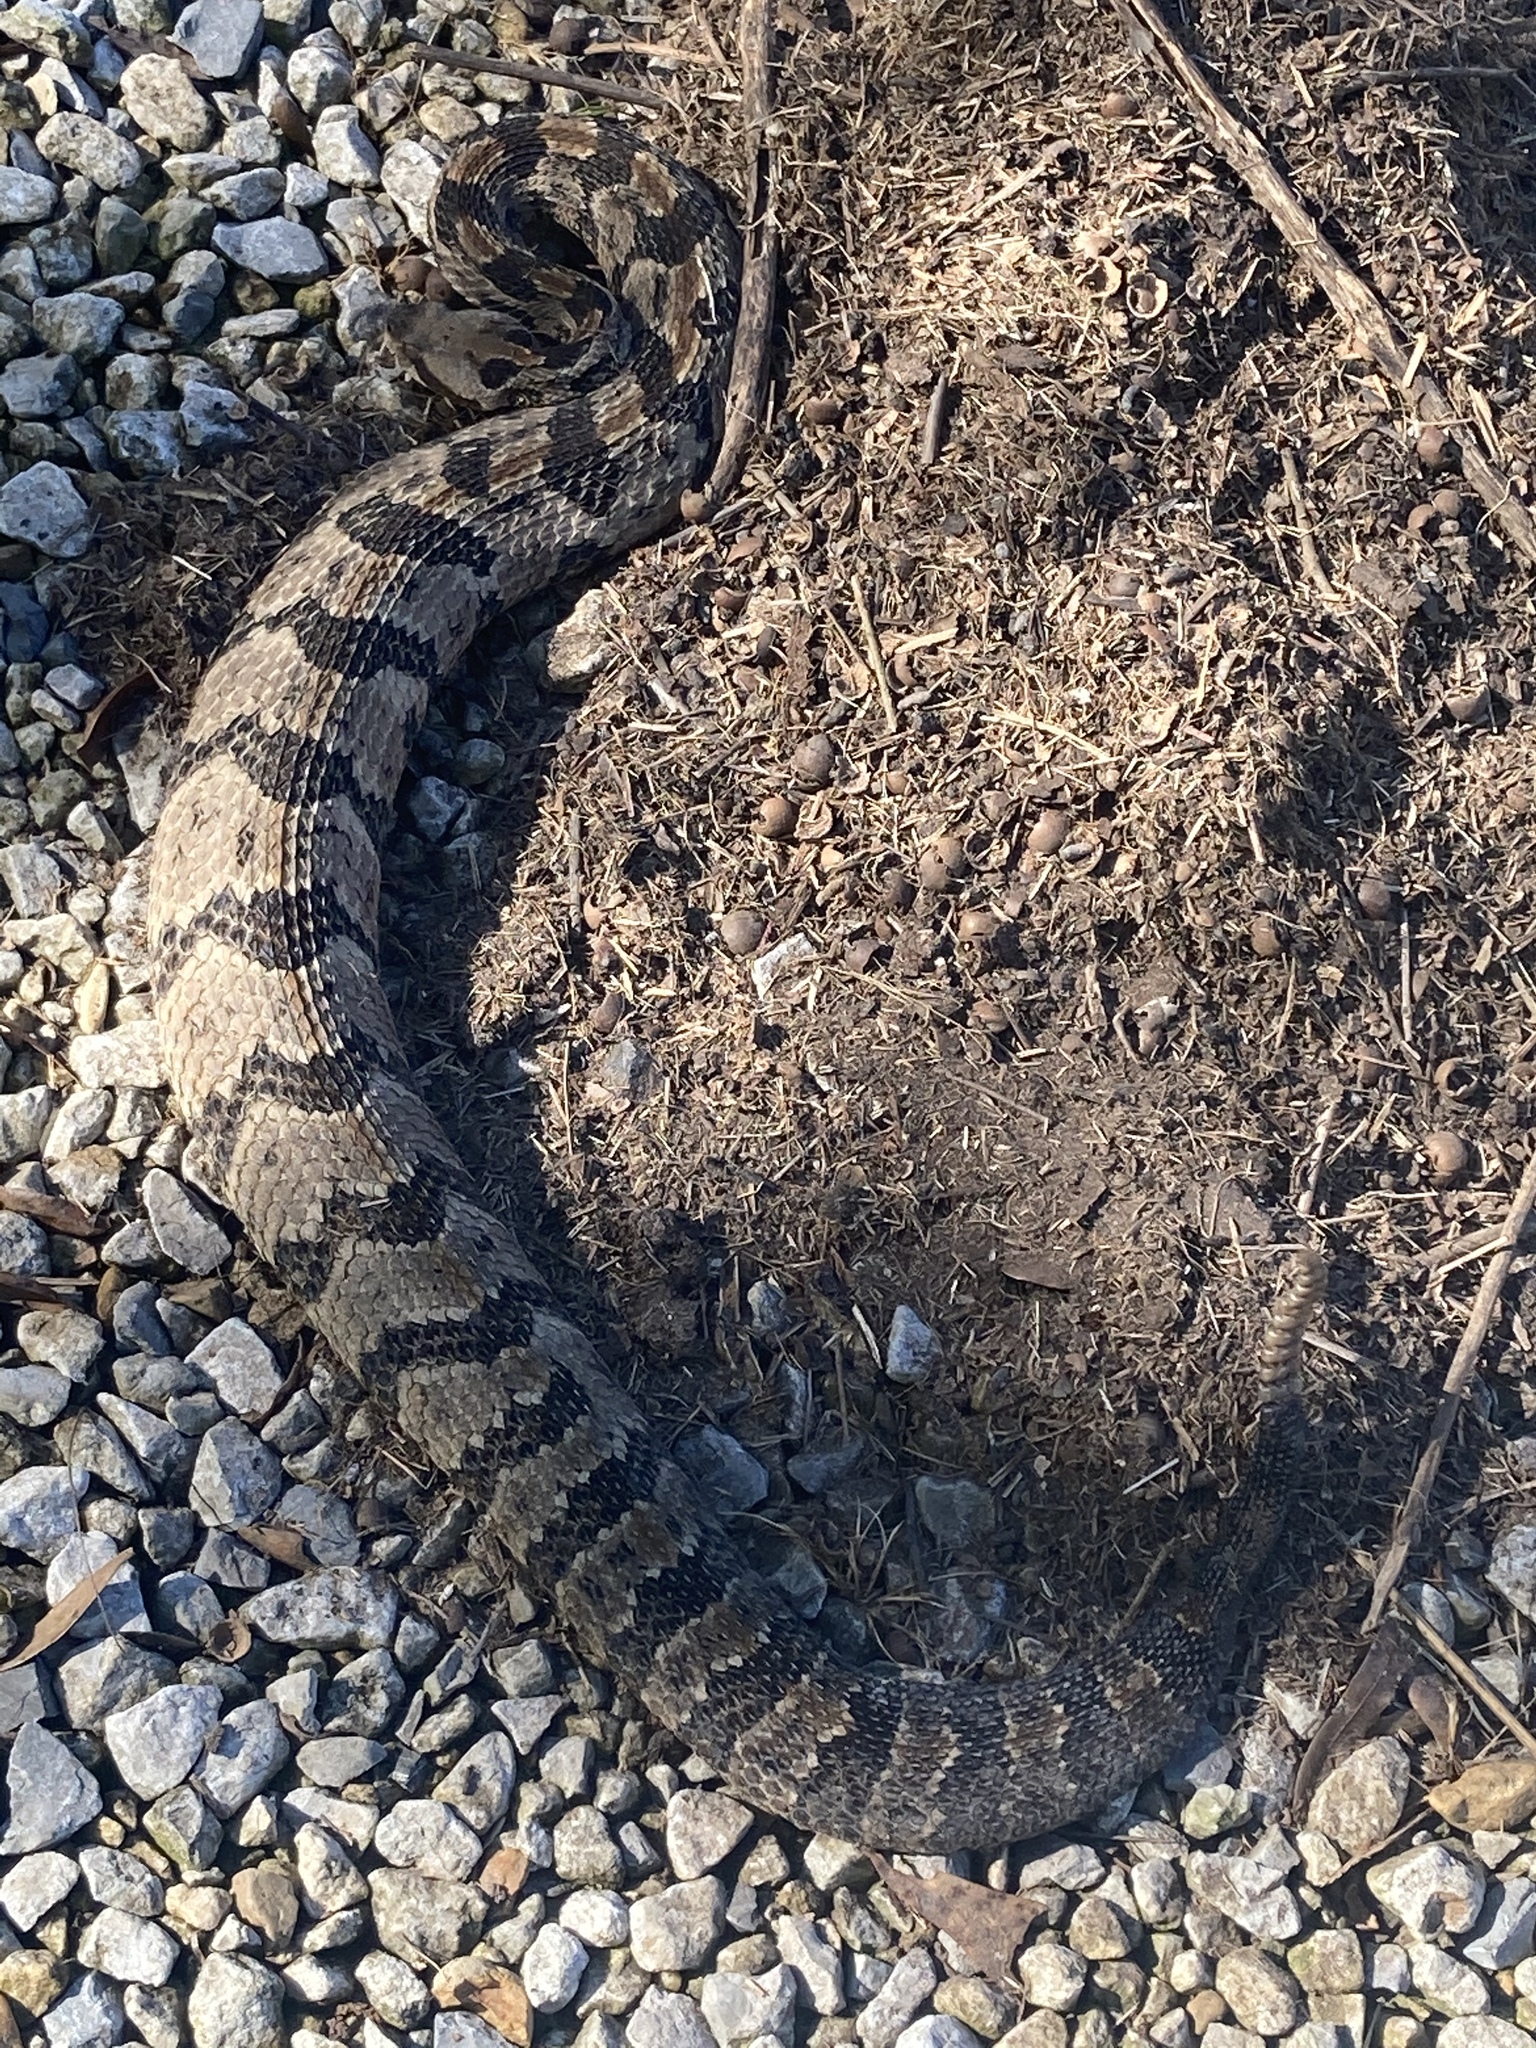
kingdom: Animalia
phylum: Chordata
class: Squamata
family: Viperidae
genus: Crotalus
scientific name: Crotalus horridus
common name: Timber rattlesnake
